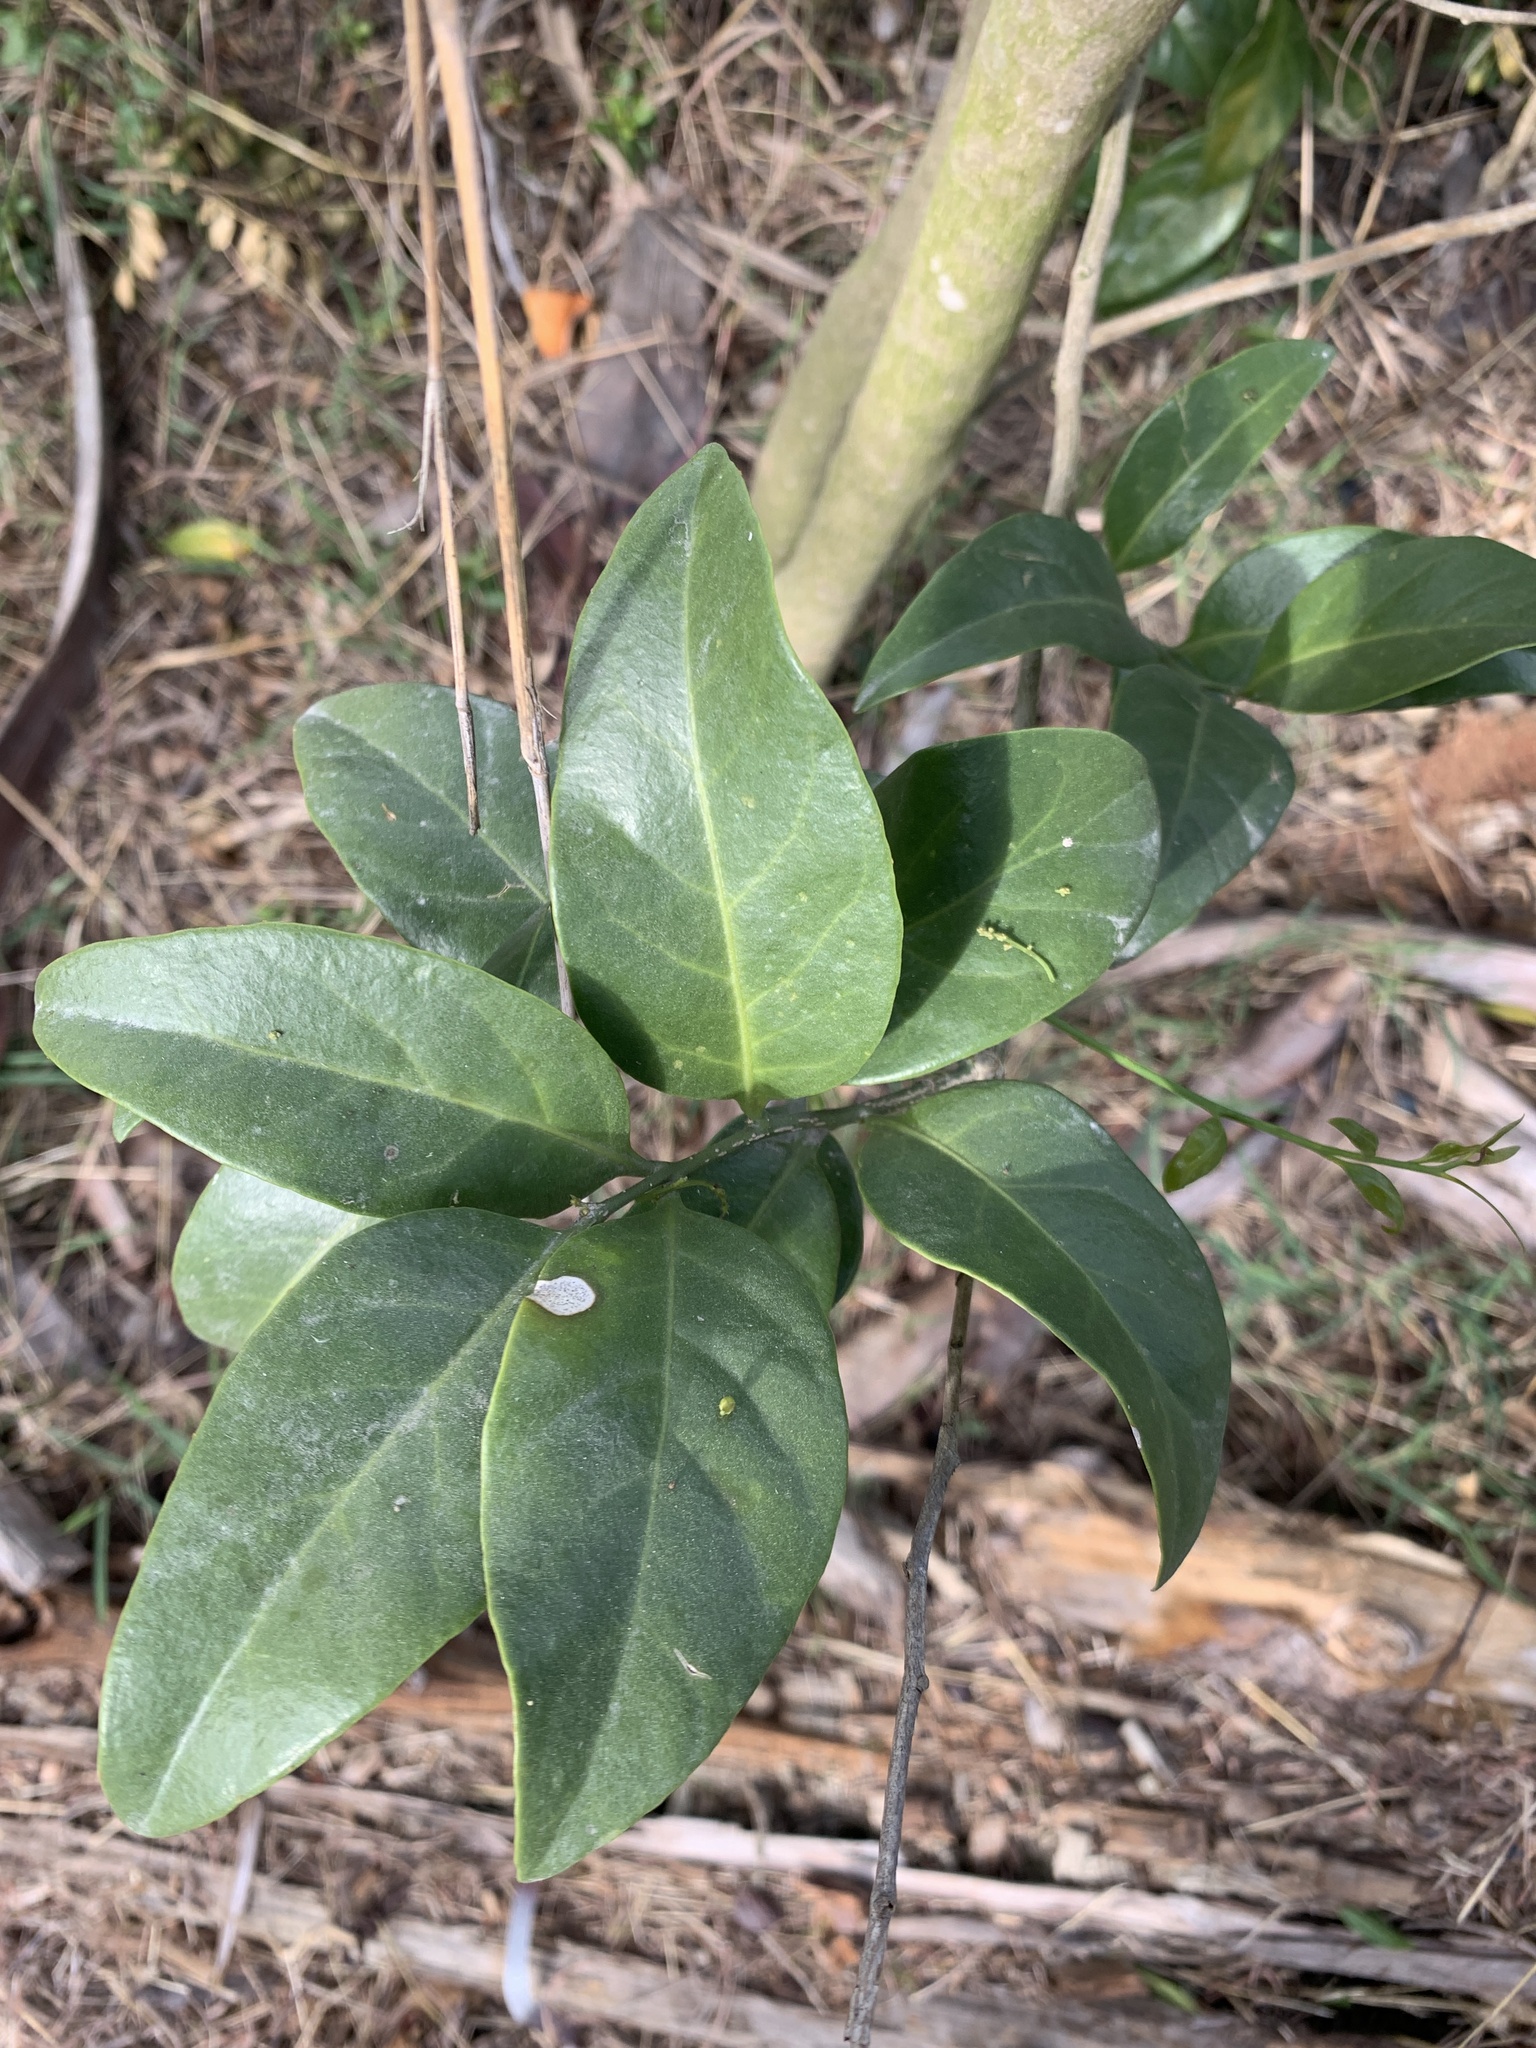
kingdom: Plantae
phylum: Tracheophyta
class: Magnoliopsida
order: Santalales
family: Opiliaceae
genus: Champereia
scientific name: Champereia manillana
